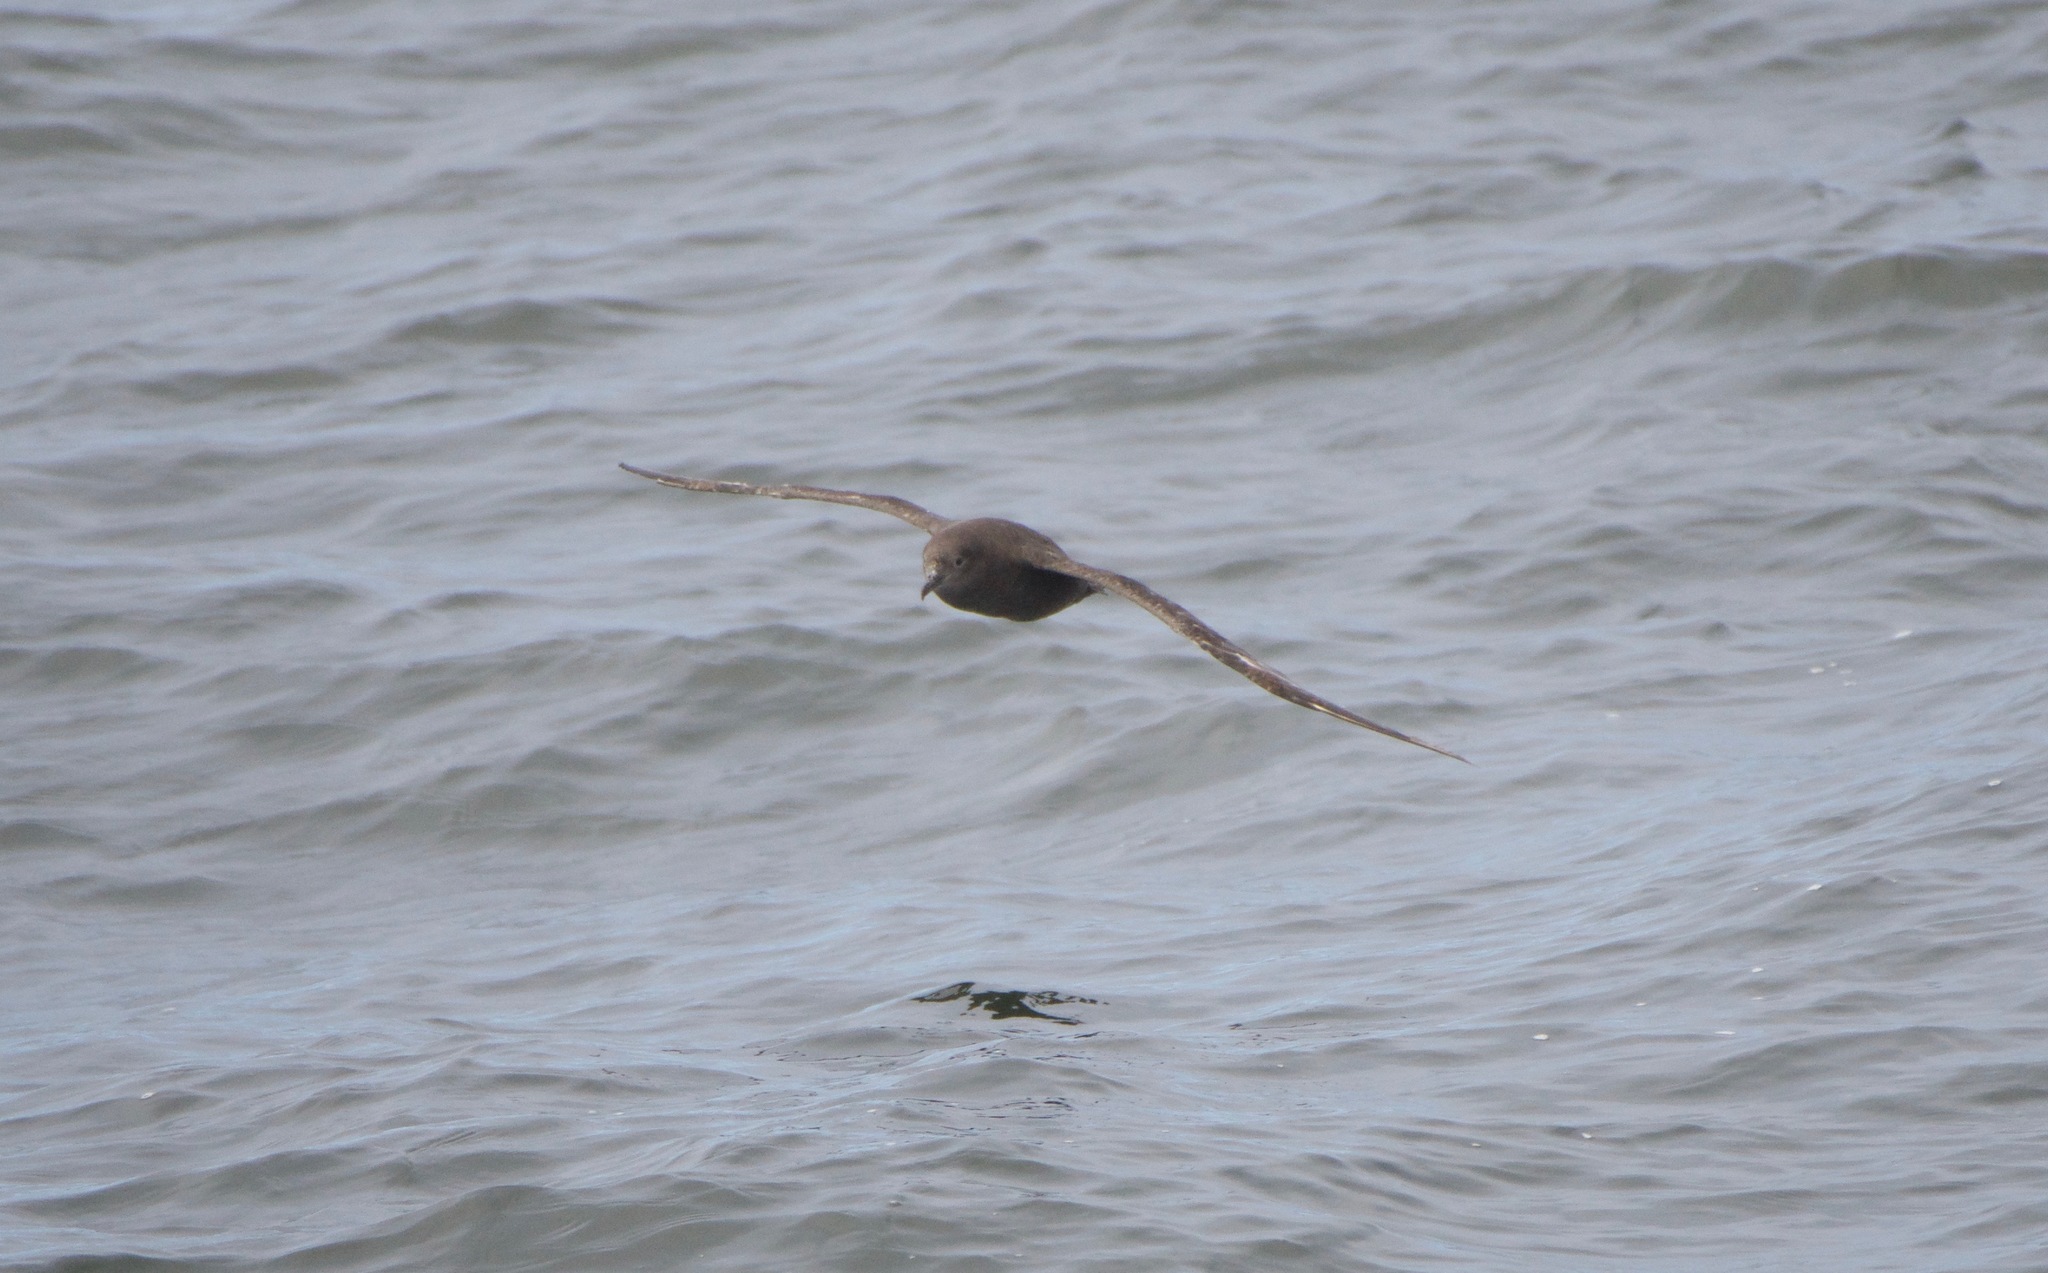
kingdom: Animalia
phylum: Chordata
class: Aves
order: Procellariiformes
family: Procellariidae
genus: Puffinus
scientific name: Puffinus griseus
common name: Sooty shearwater
